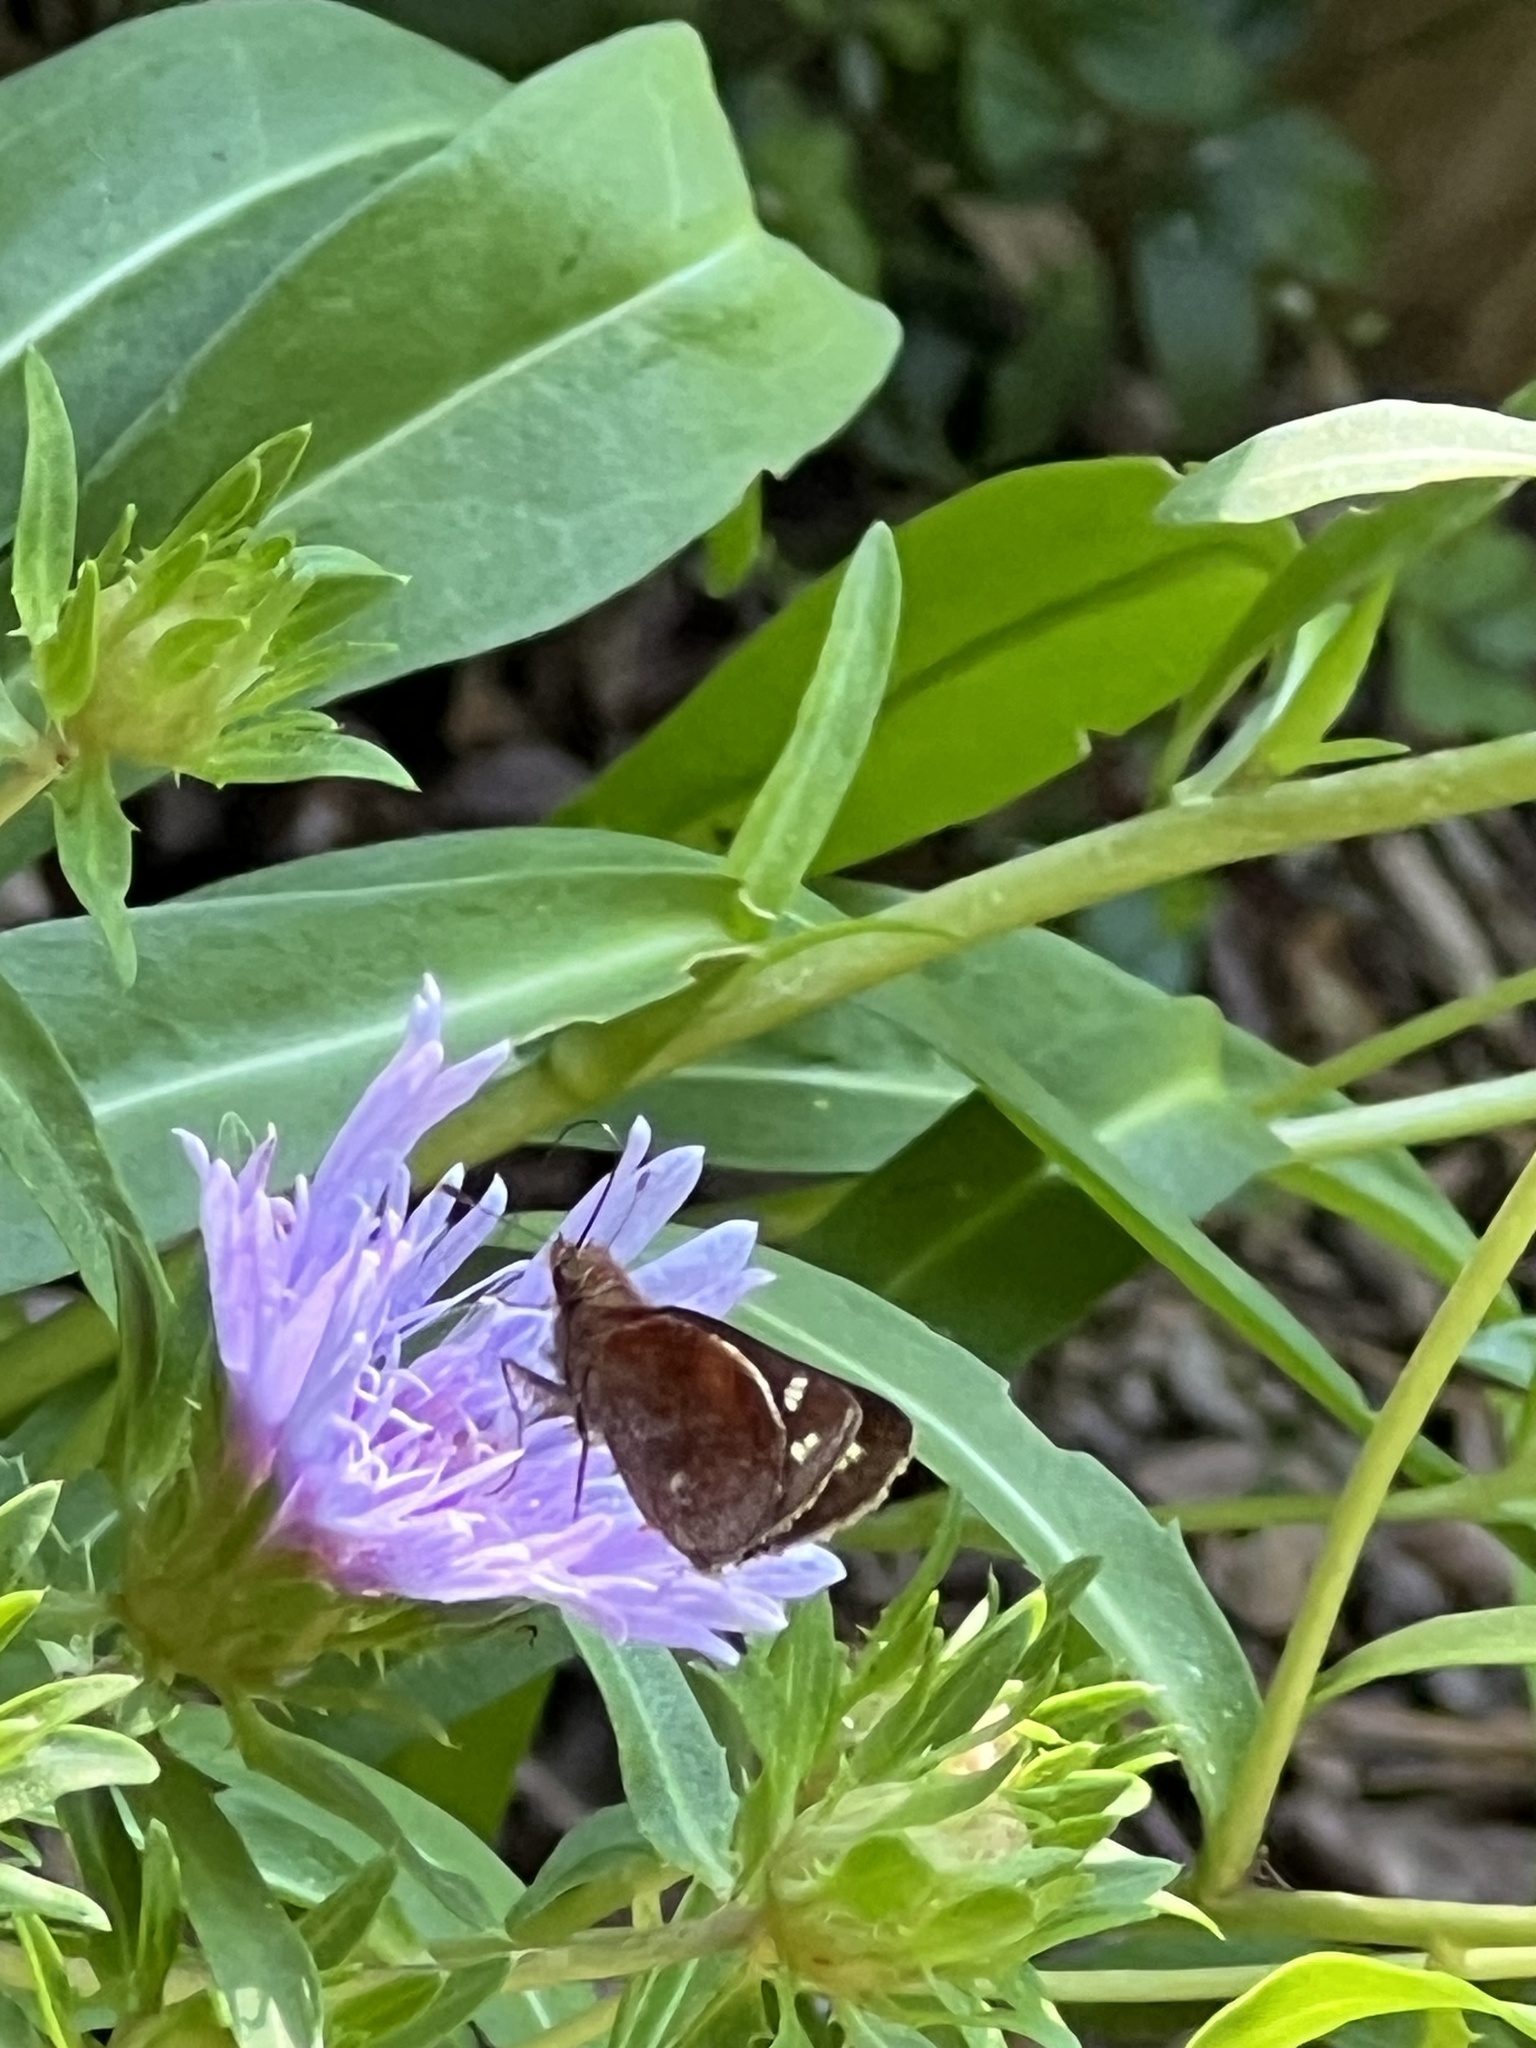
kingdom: Animalia
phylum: Arthropoda
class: Insecta
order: Lepidoptera
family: Hesperiidae
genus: Lon
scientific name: Lon zabulon
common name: Zabulon skipper
